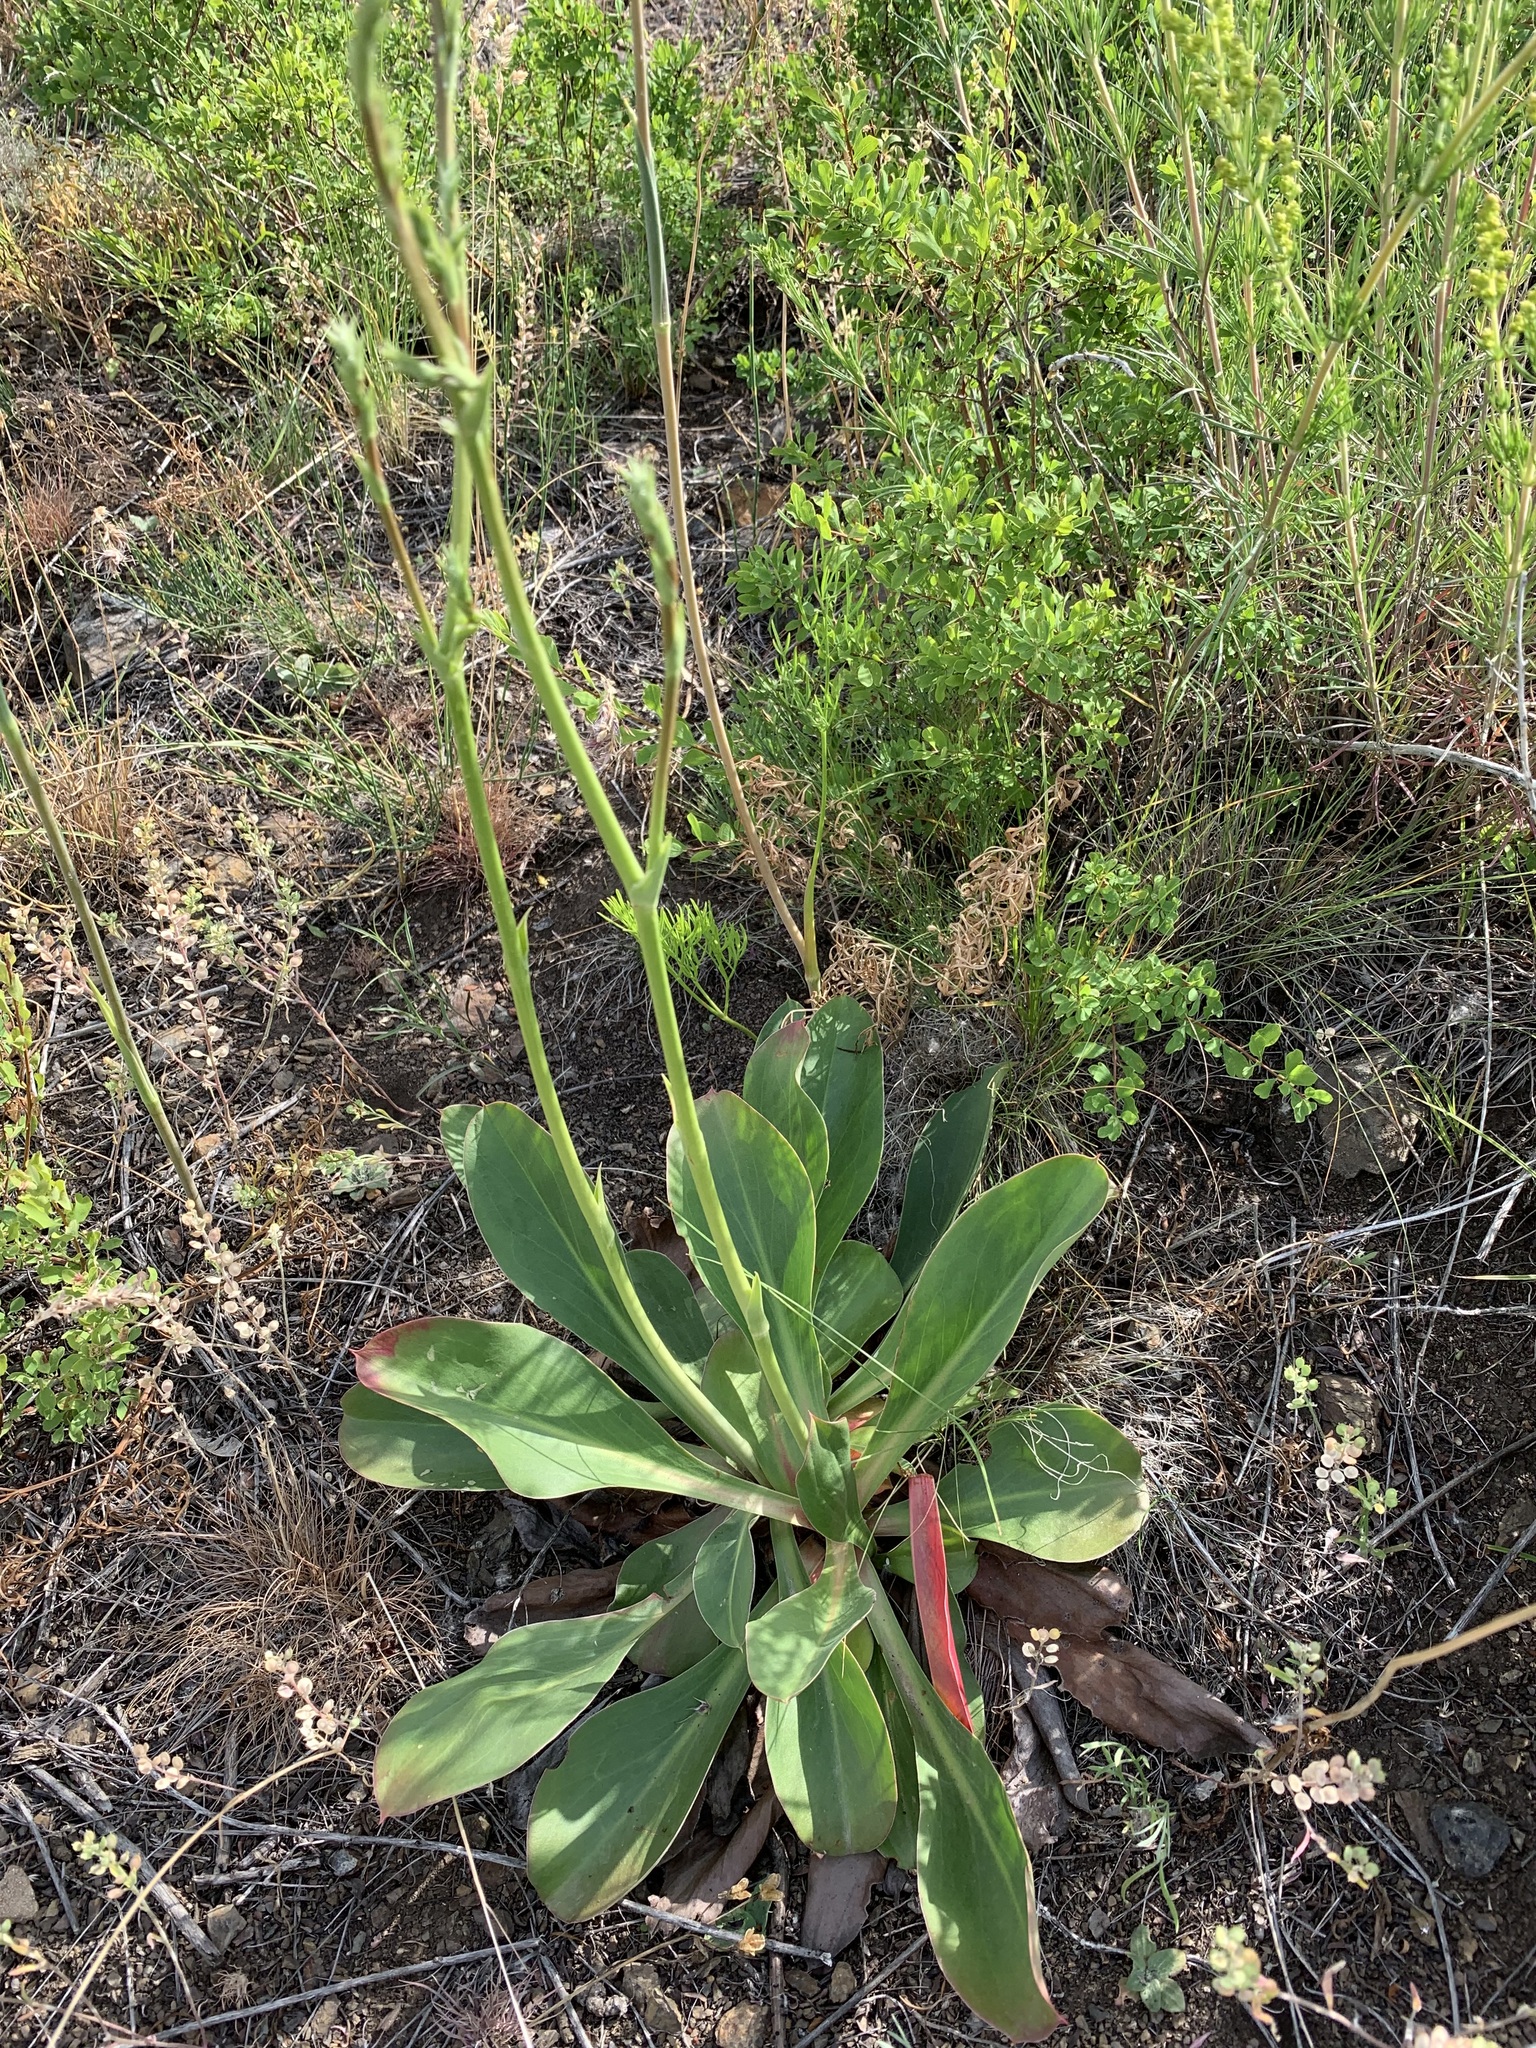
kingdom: Plantae
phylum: Tracheophyta
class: Magnoliopsida
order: Caryophyllales
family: Plumbaginaceae
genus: Goniolimon
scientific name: Goniolimon elatum
